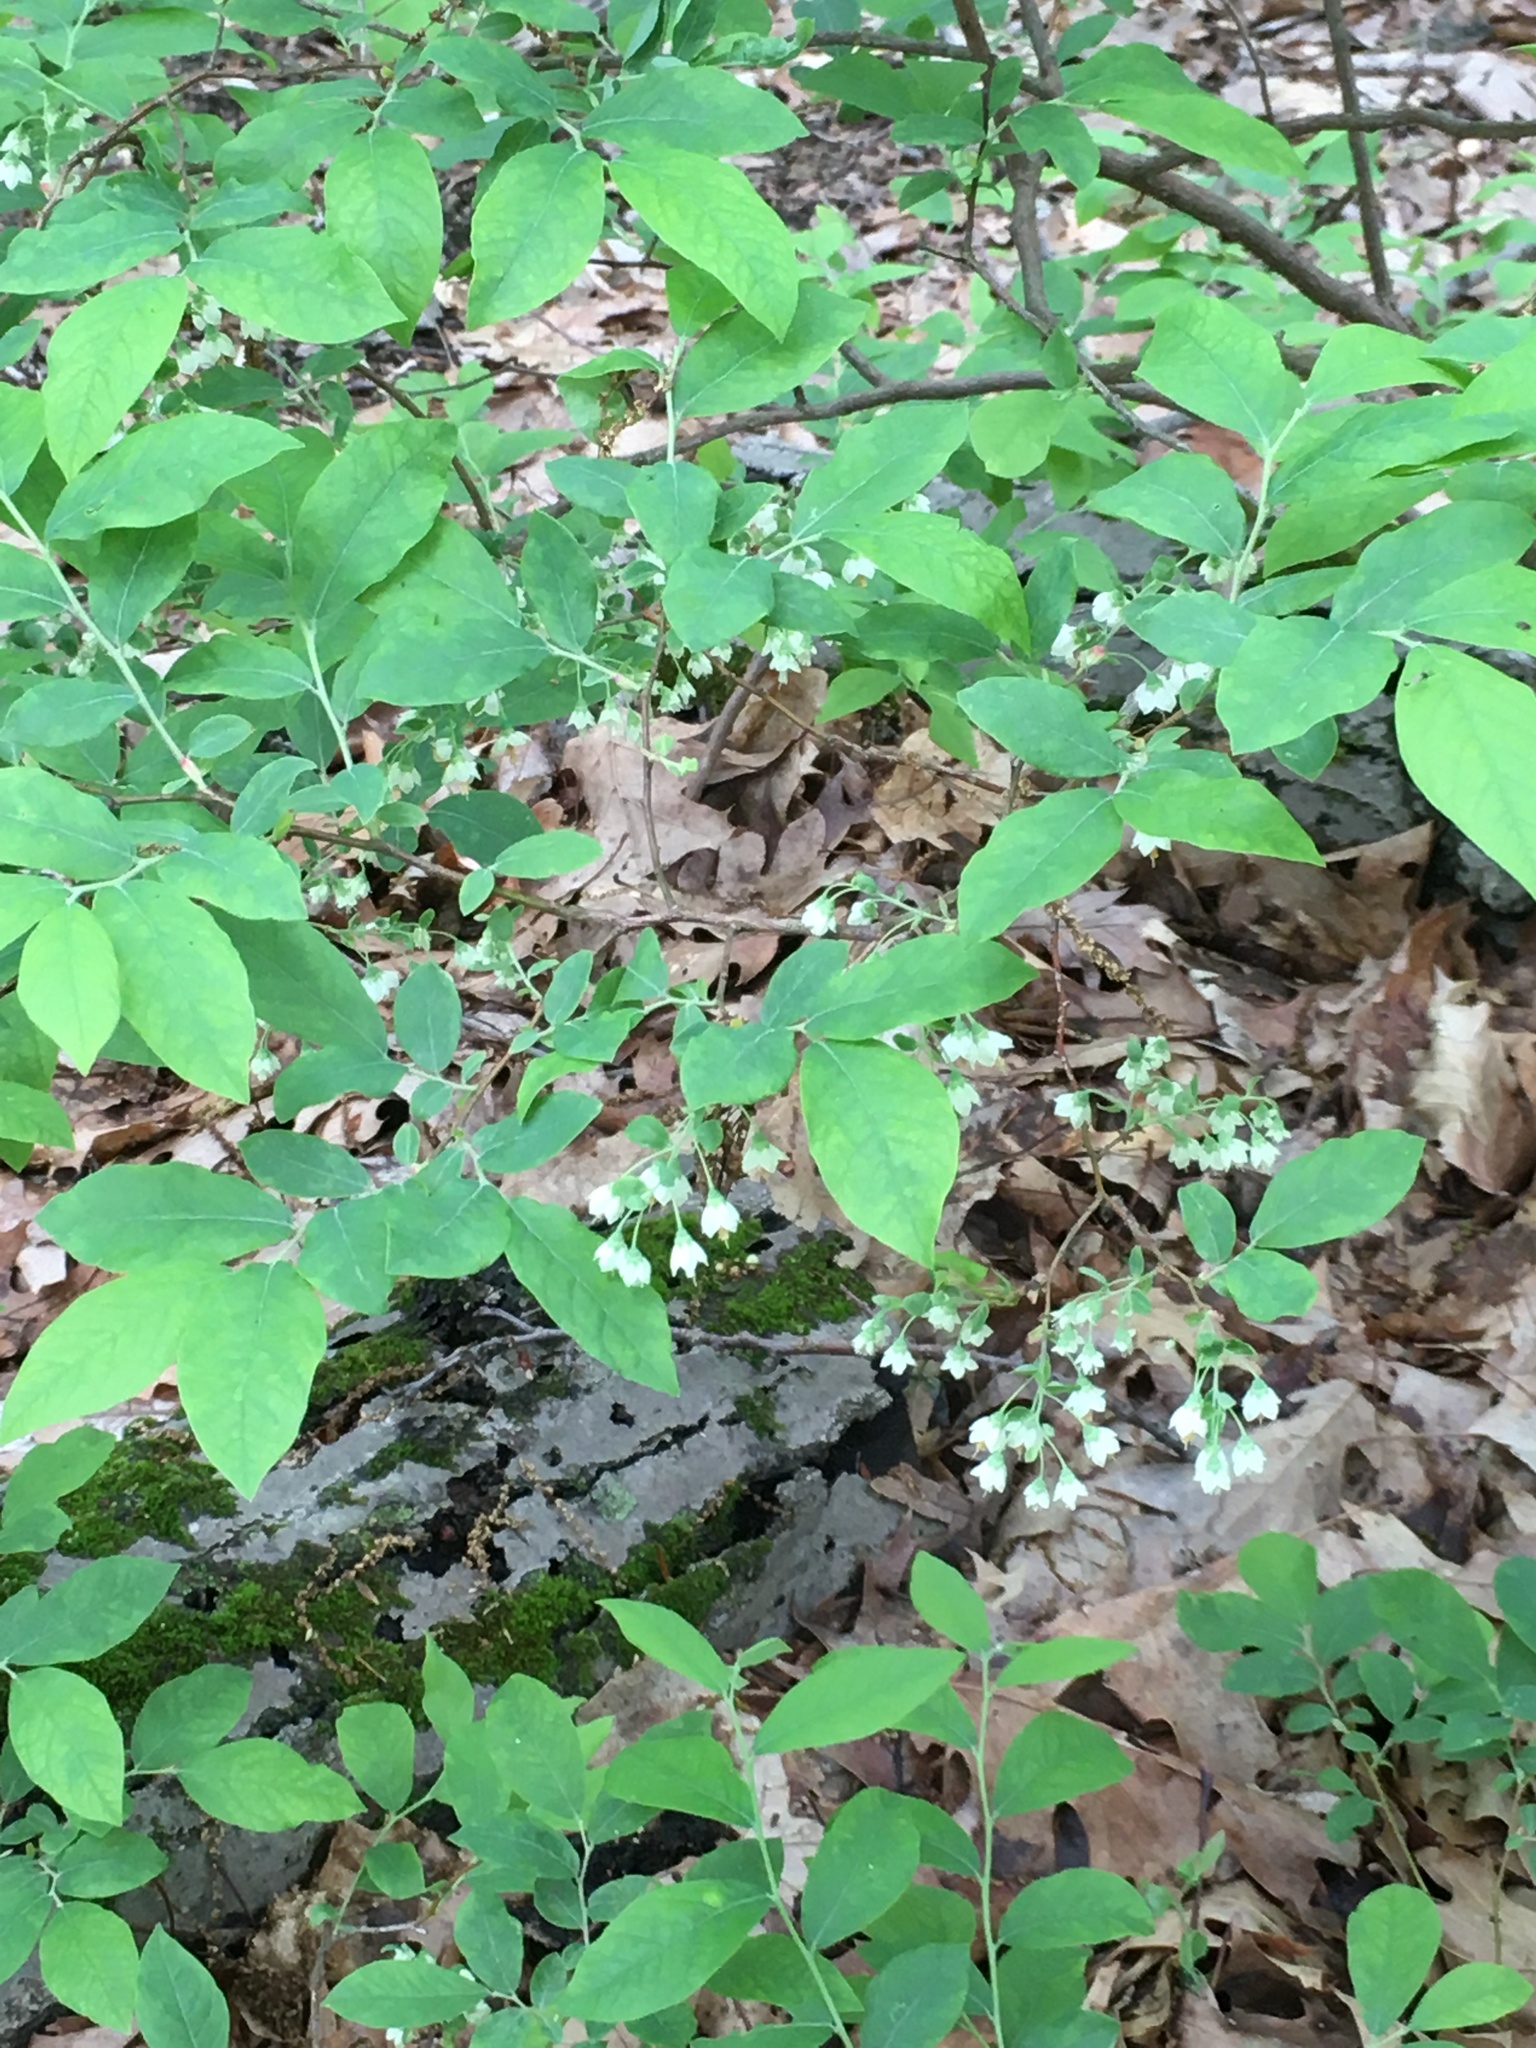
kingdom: Plantae
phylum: Tracheophyta
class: Magnoliopsida
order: Ericales
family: Ericaceae
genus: Vaccinium
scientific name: Vaccinium stamineum
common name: Deerberry
